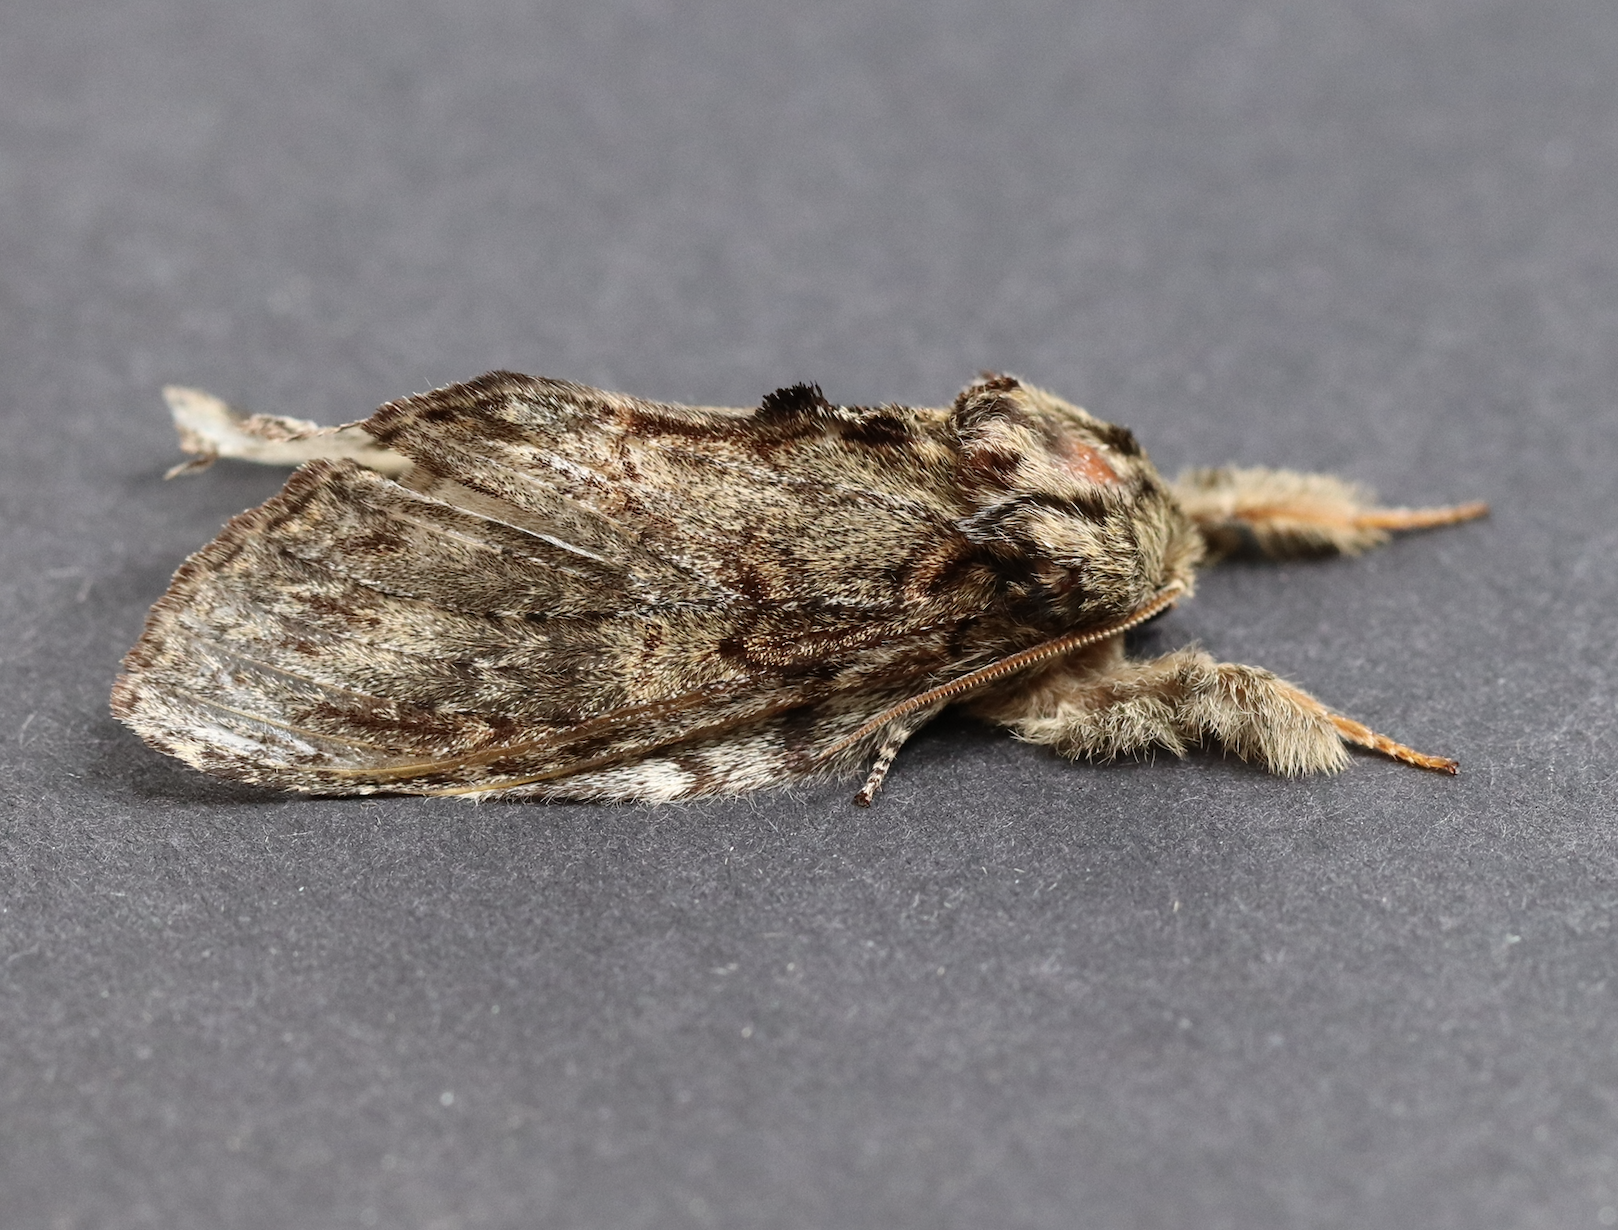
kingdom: Animalia
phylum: Arthropoda
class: Insecta
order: Lepidoptera
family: Notodontidae
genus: Peridea
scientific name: Peridea anceps
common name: Great prominent
